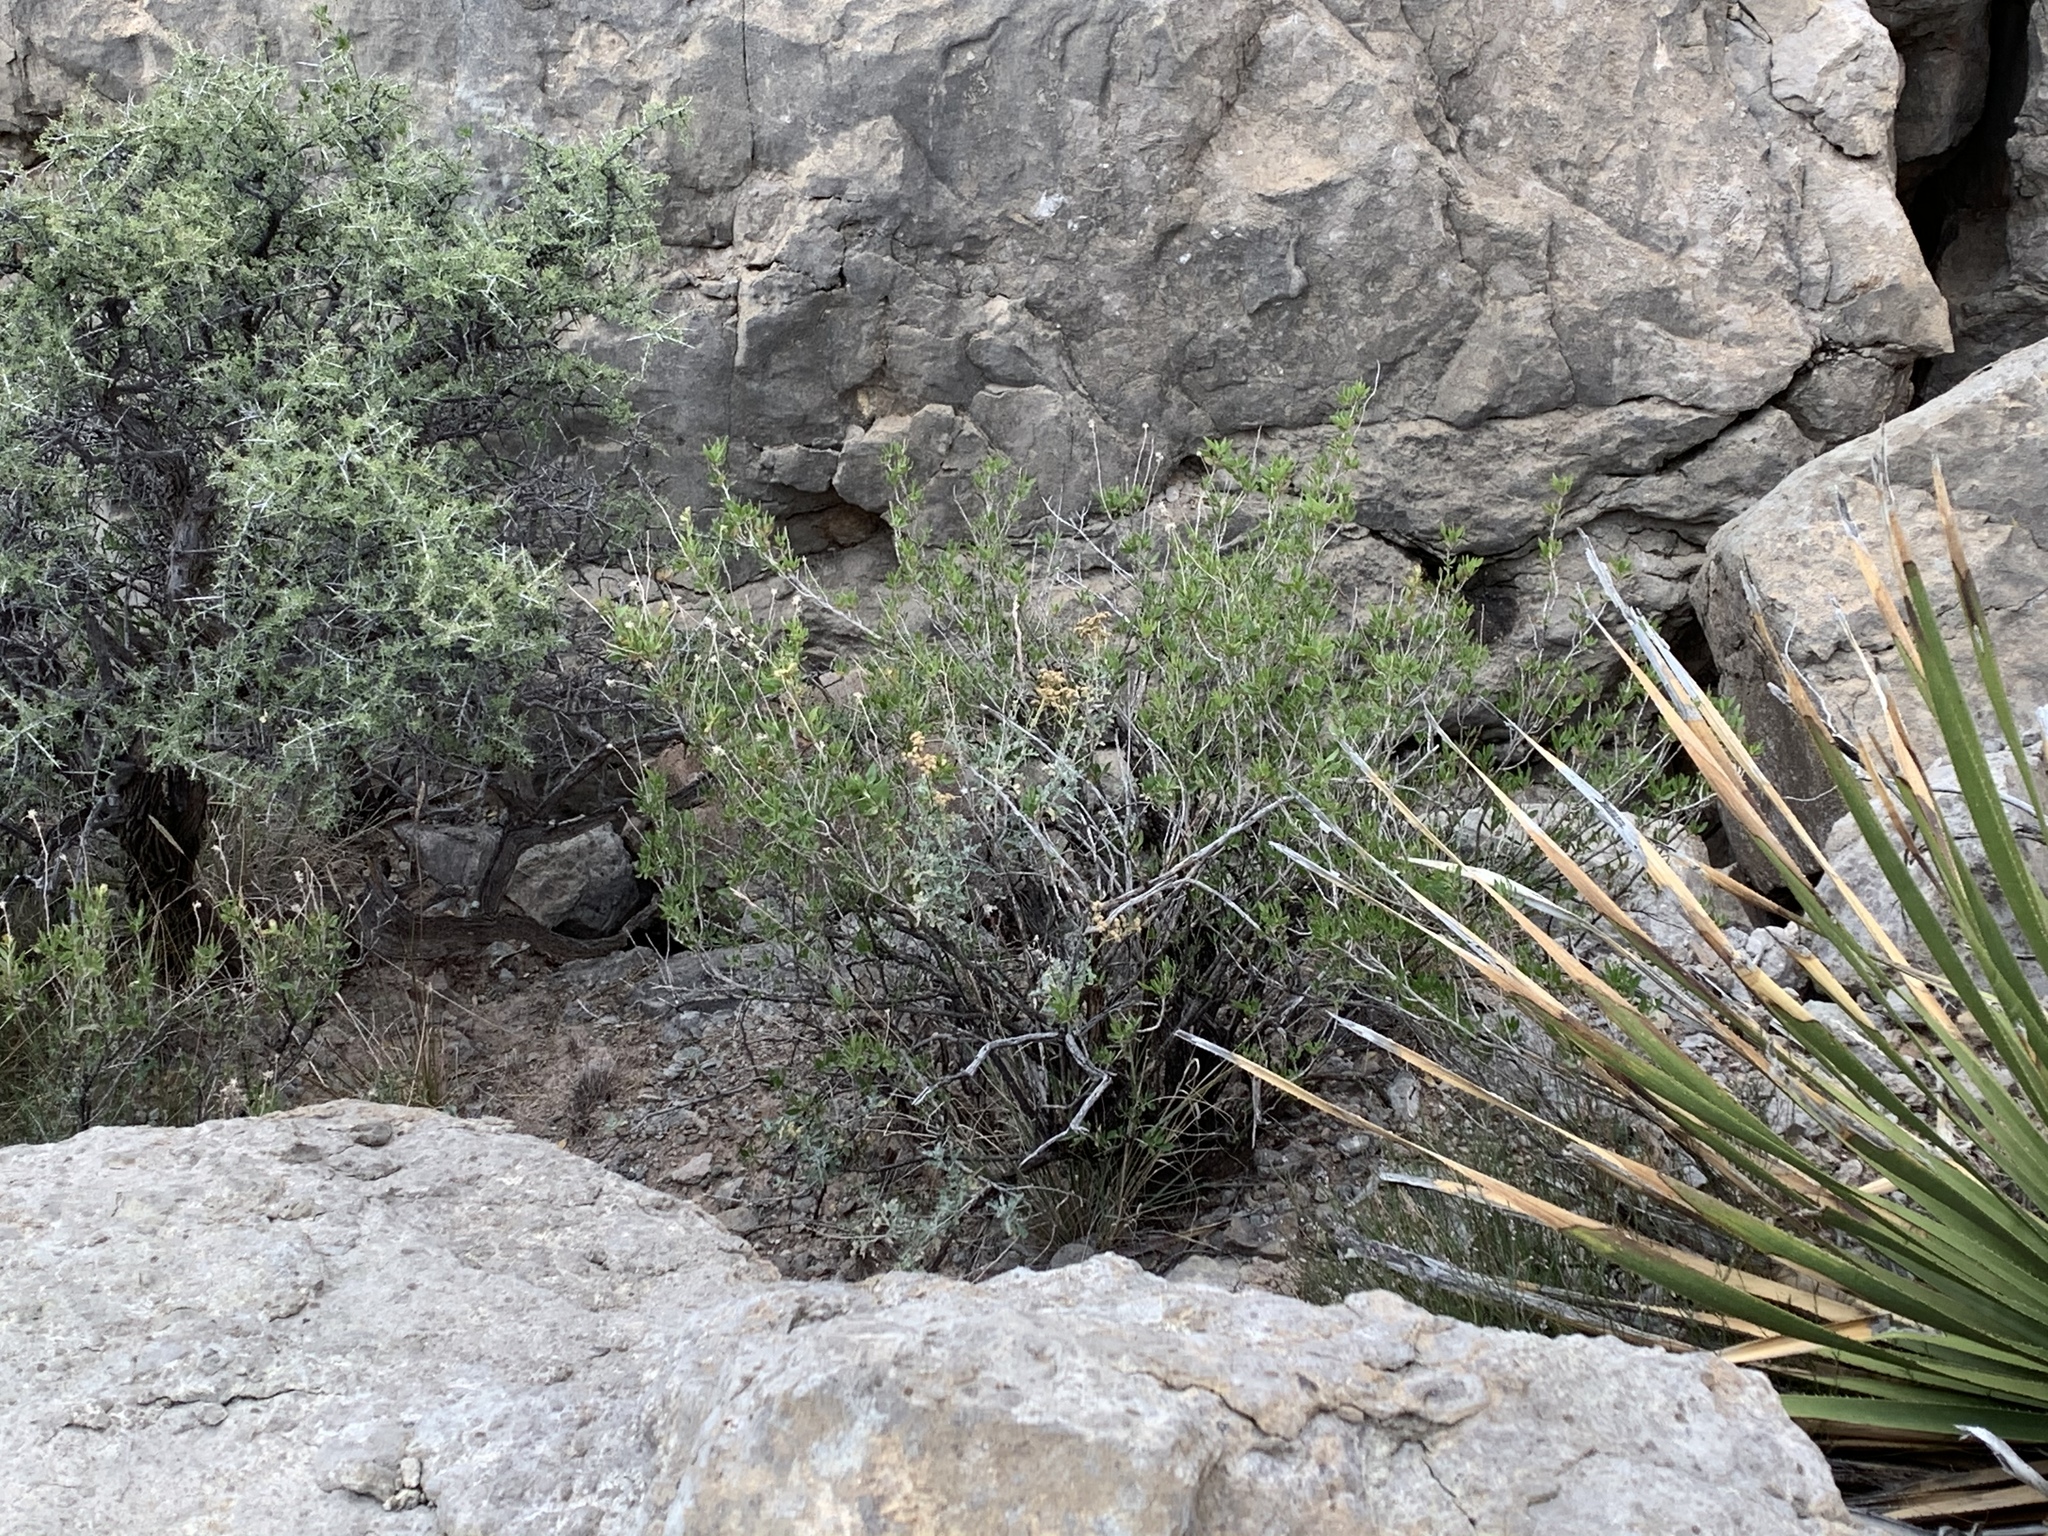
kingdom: Plantae
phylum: Tracheophyta
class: Magnoliopsida
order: Asterales
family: Asteraceae
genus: Flourensia
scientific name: Flourensia cernua
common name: Varnishbush
